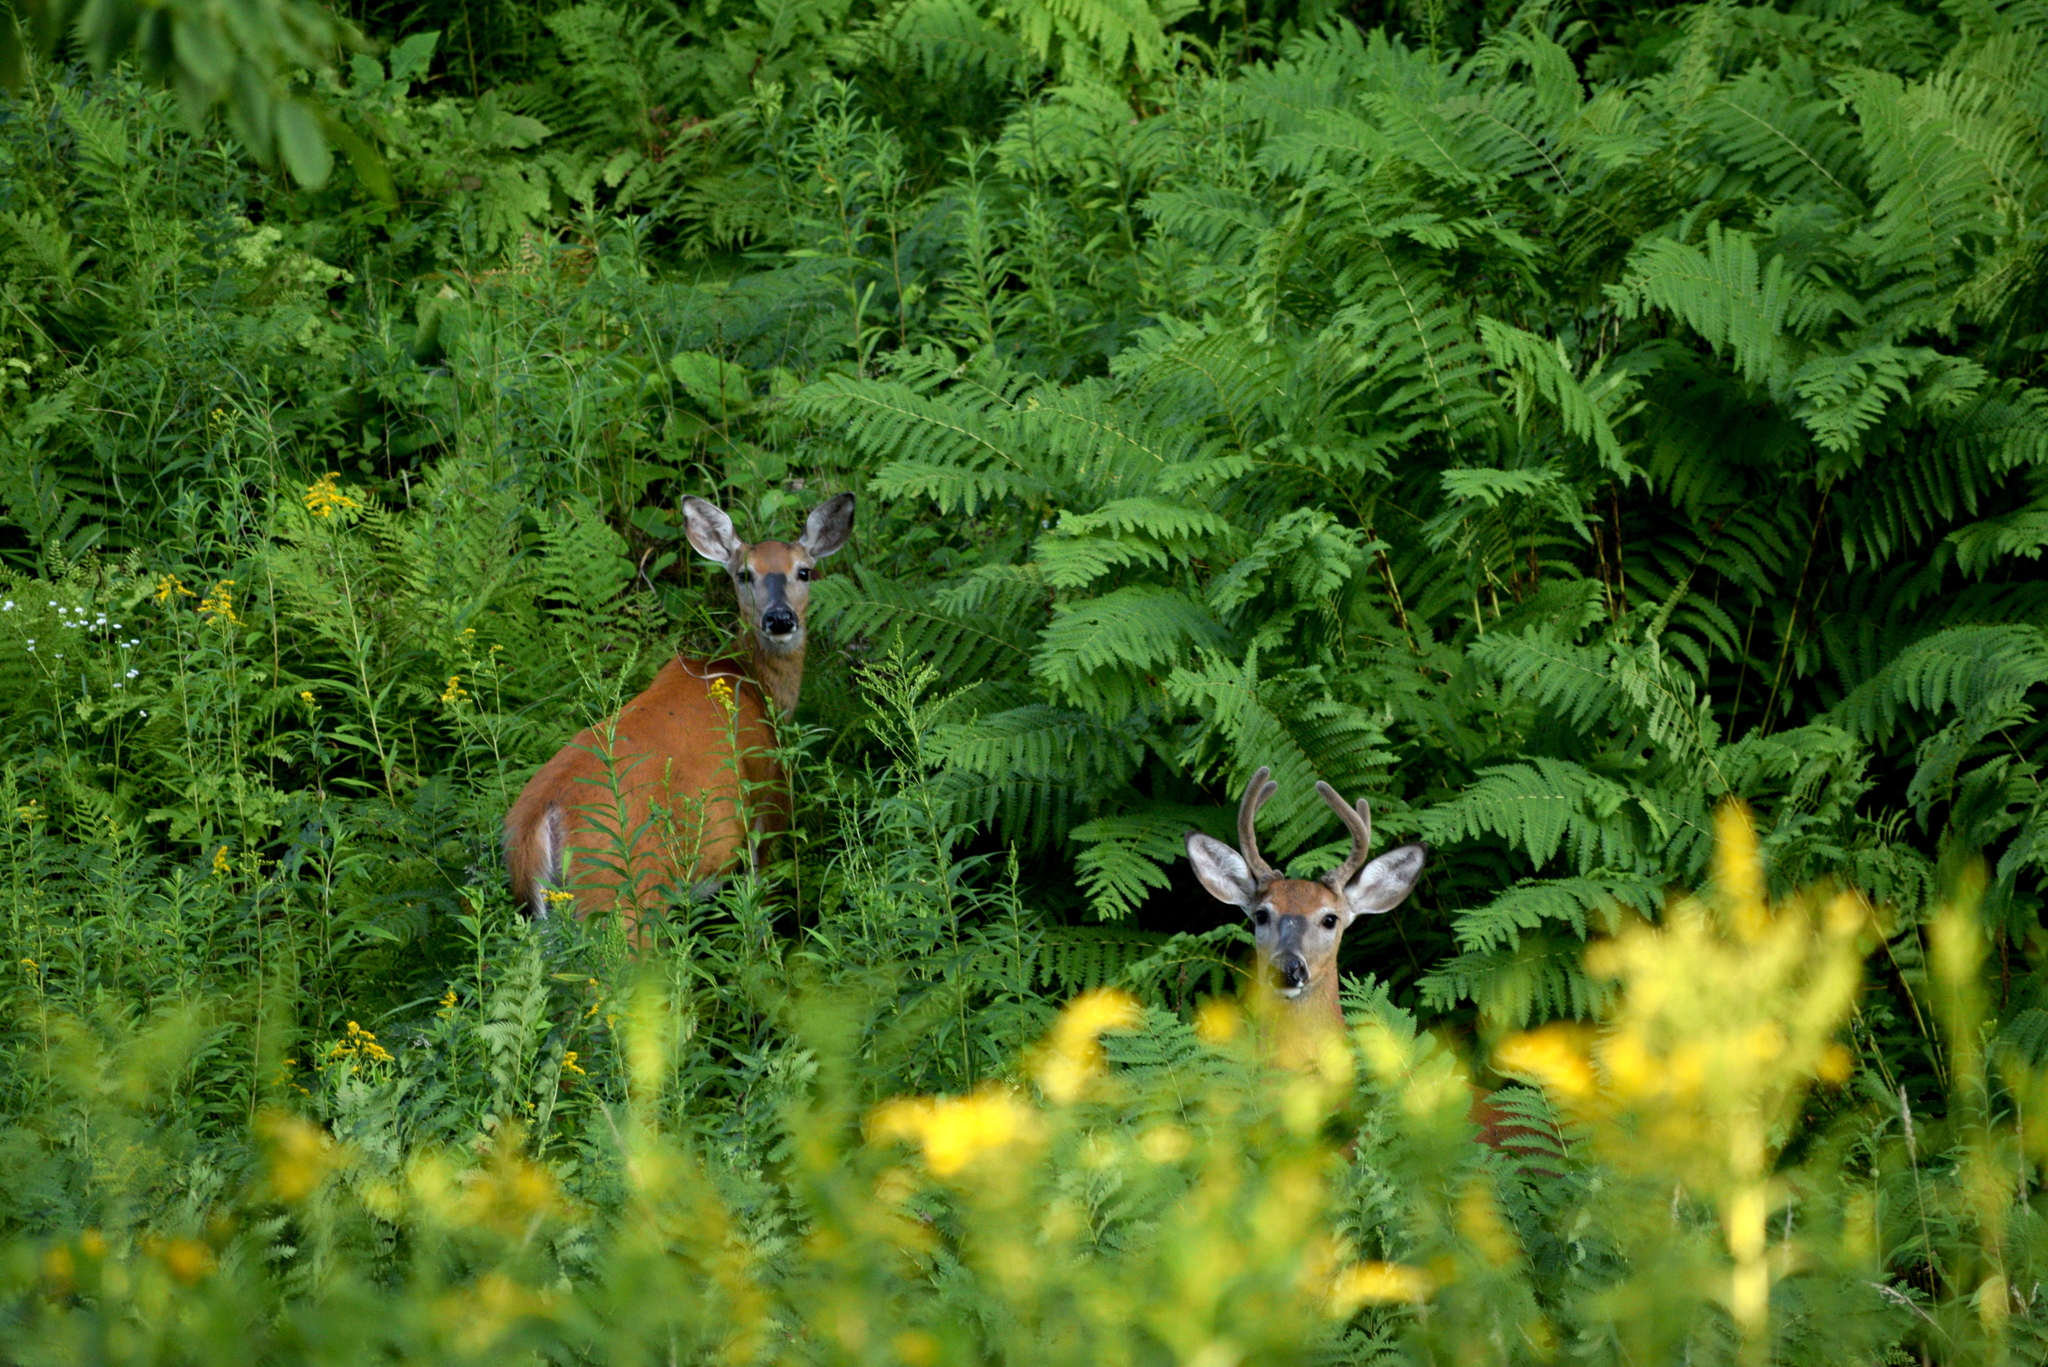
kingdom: Animalia
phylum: Chordata
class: Mammalia
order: Artiodactyla
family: Cervidae
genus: Odocoileus
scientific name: Odocoileus virginianus
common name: White-tailed deer
